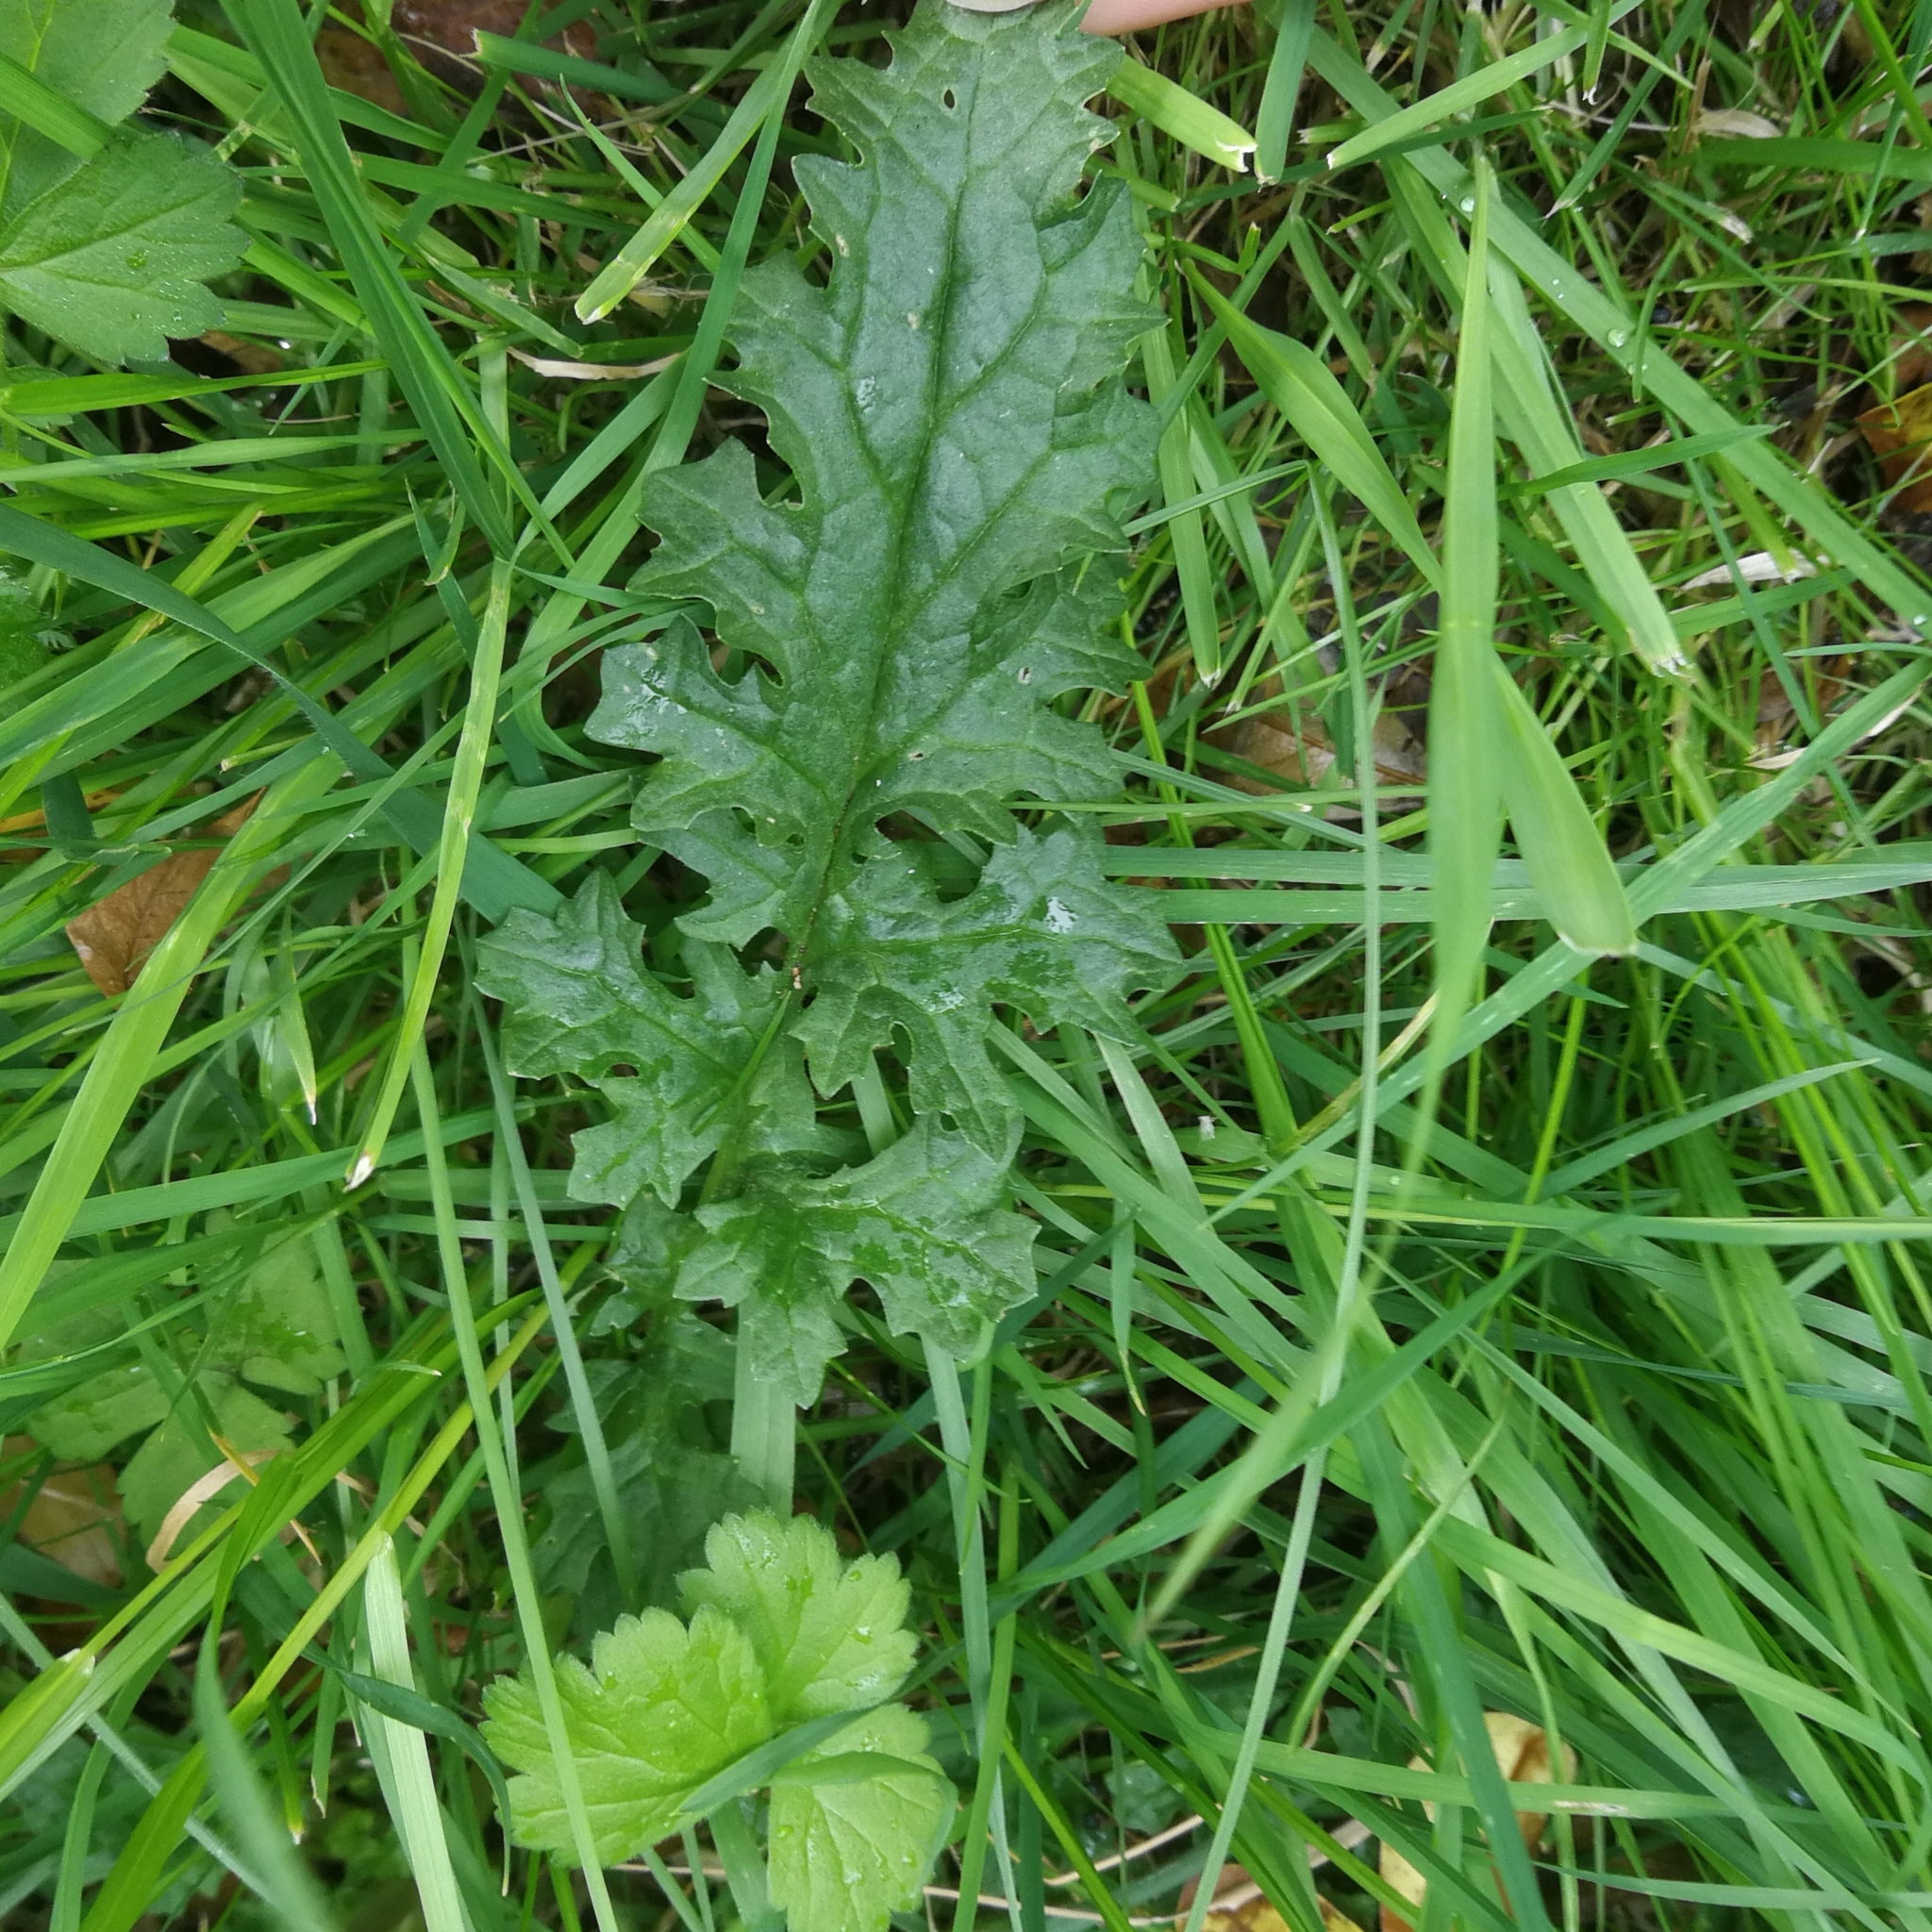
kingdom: Plantae
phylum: Tracheophyta
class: Magnoliopsida
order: Asterales
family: Asteraceae
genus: Jacobaea
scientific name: Jacobaea vulgaris
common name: Stinking willie
